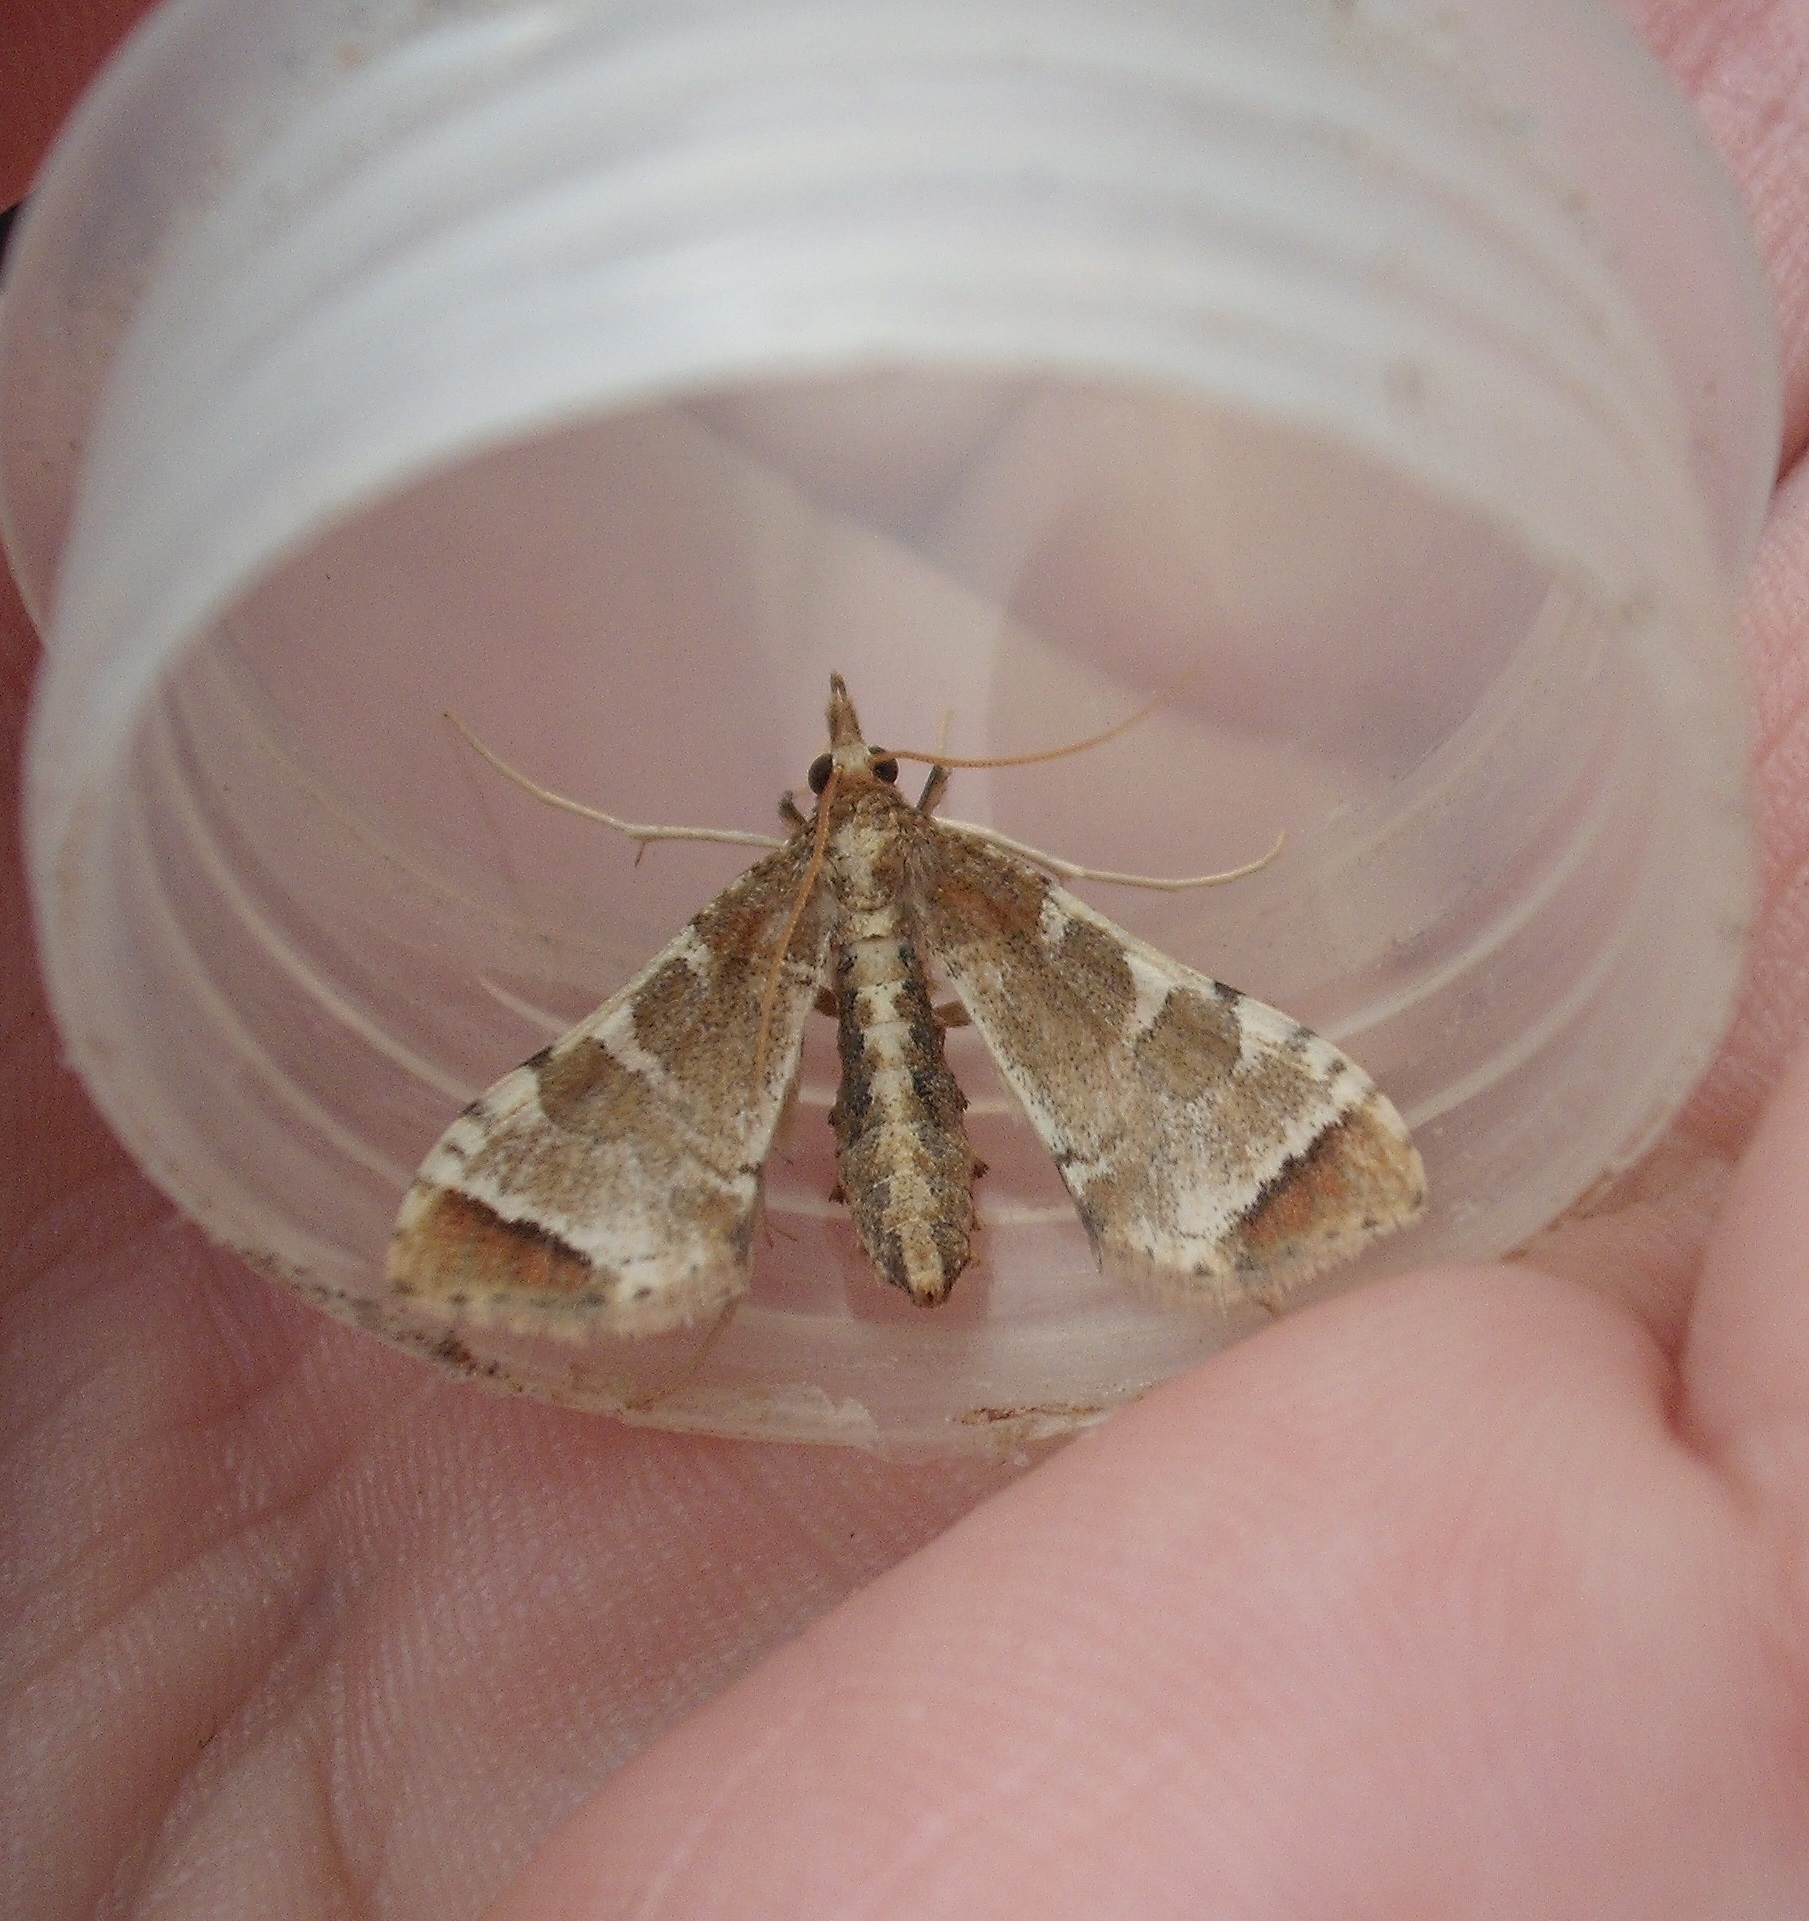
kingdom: Animalia
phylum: Arthropoda
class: Insecta
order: Lepidoptera
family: Crambidae
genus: Sceliodes
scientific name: Sceliodes cordalis
